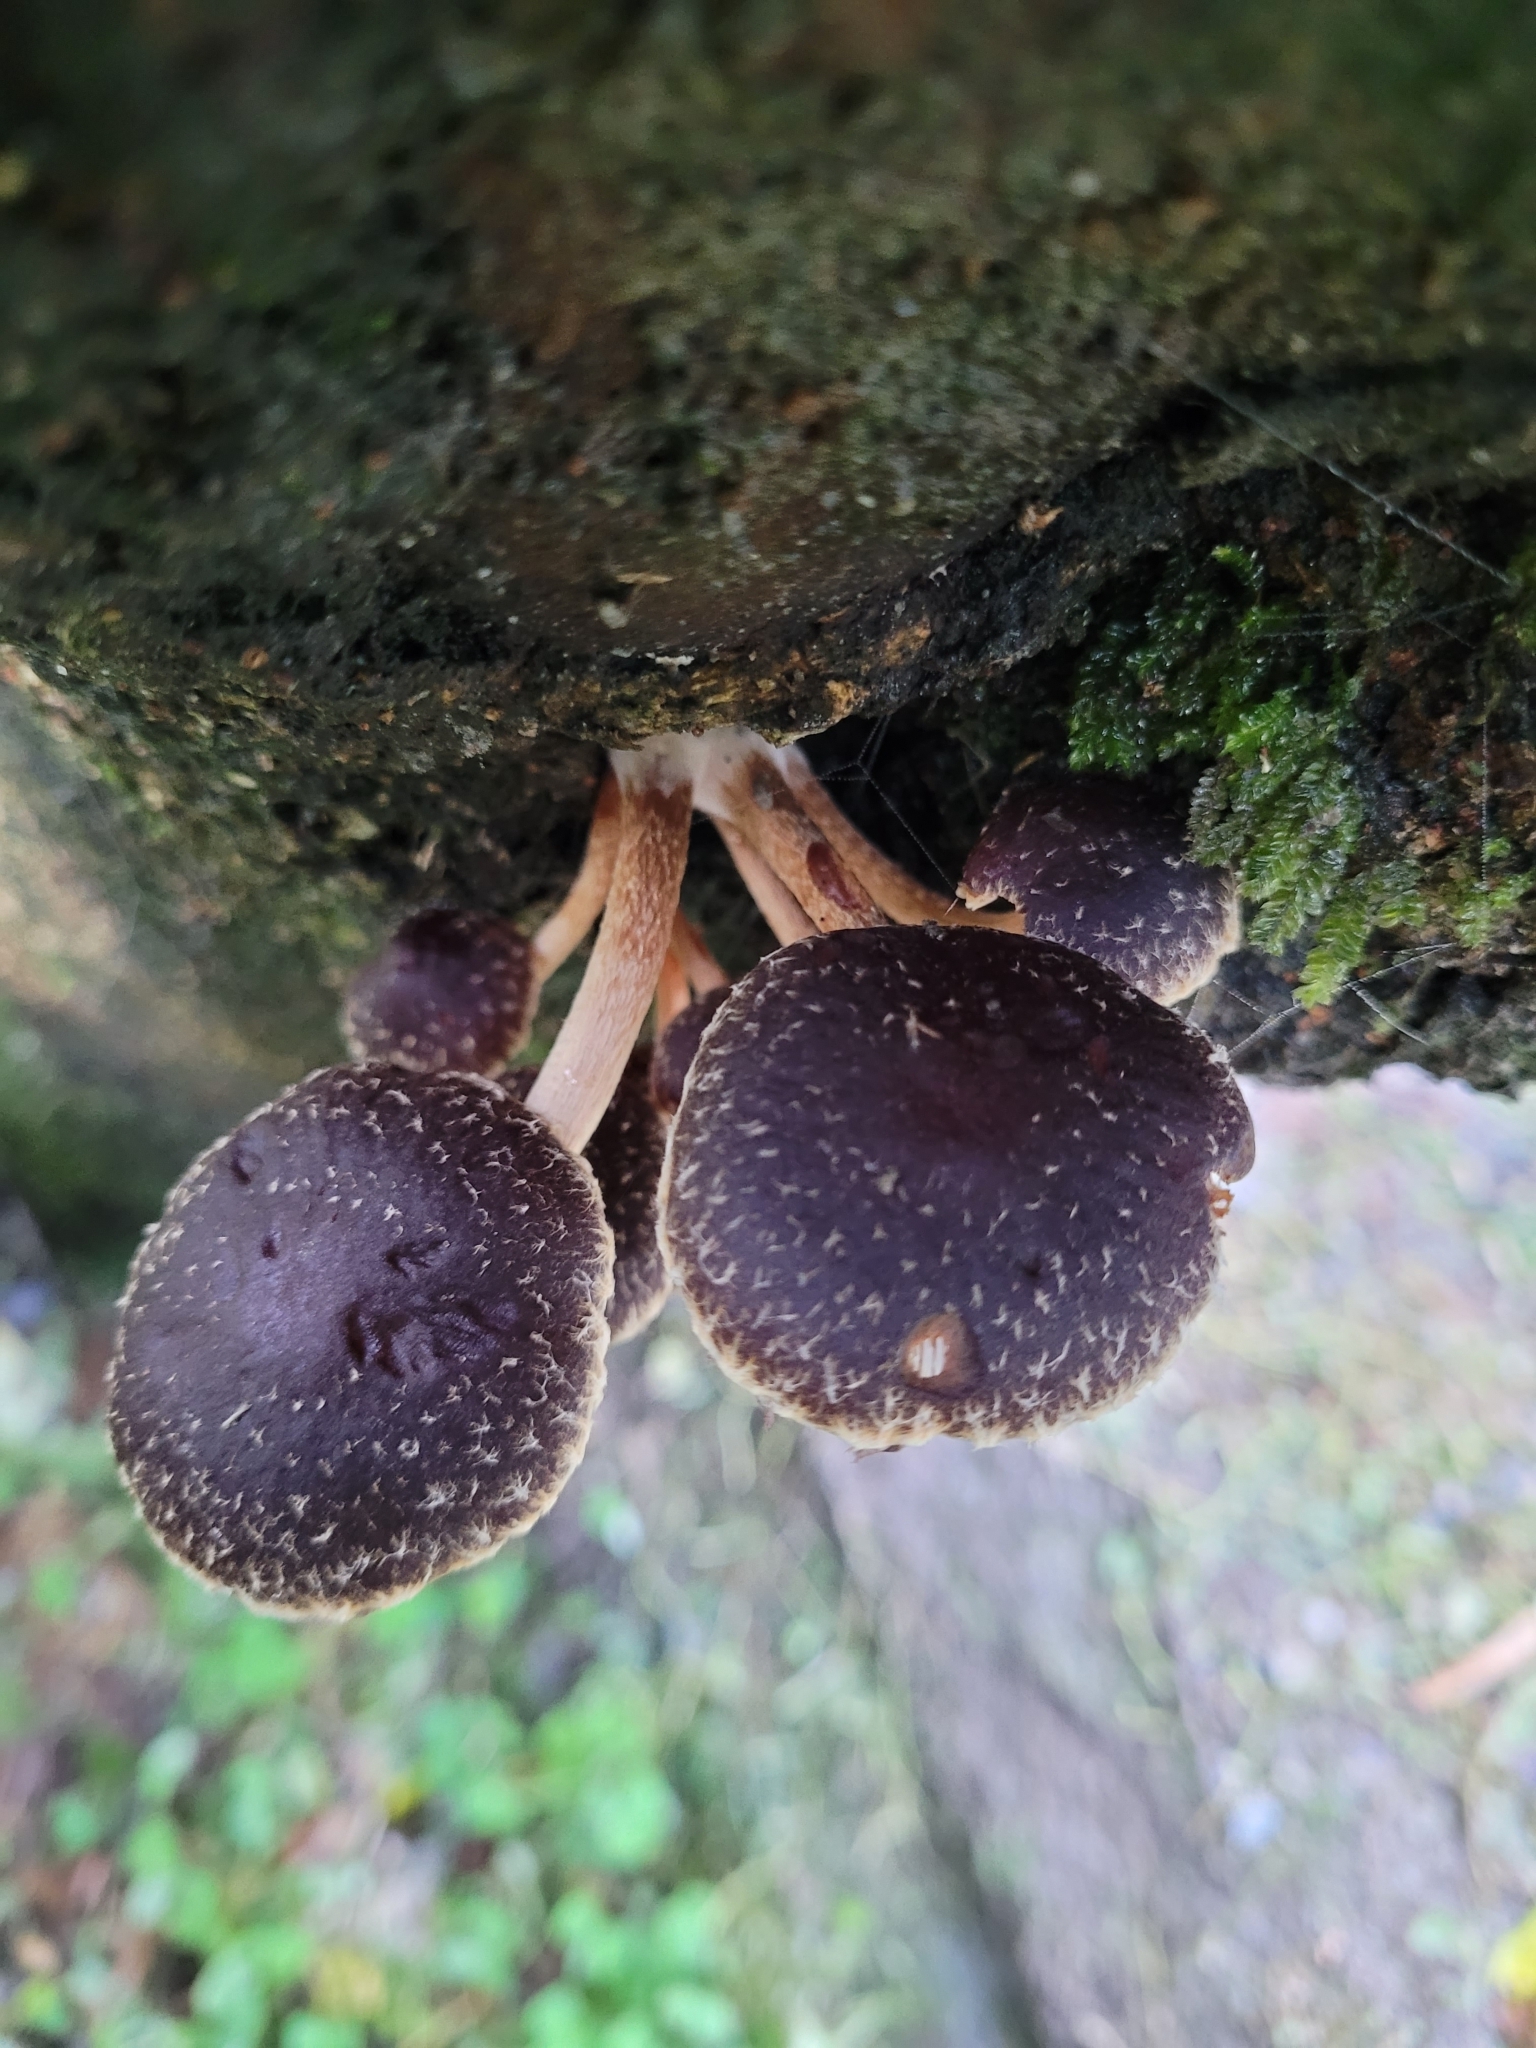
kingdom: Fungi
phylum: Basidiomycota
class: Agaricomycetes
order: Agaricales
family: Strophariaceae
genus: Hypholoma
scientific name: Hypholoma brunneum
